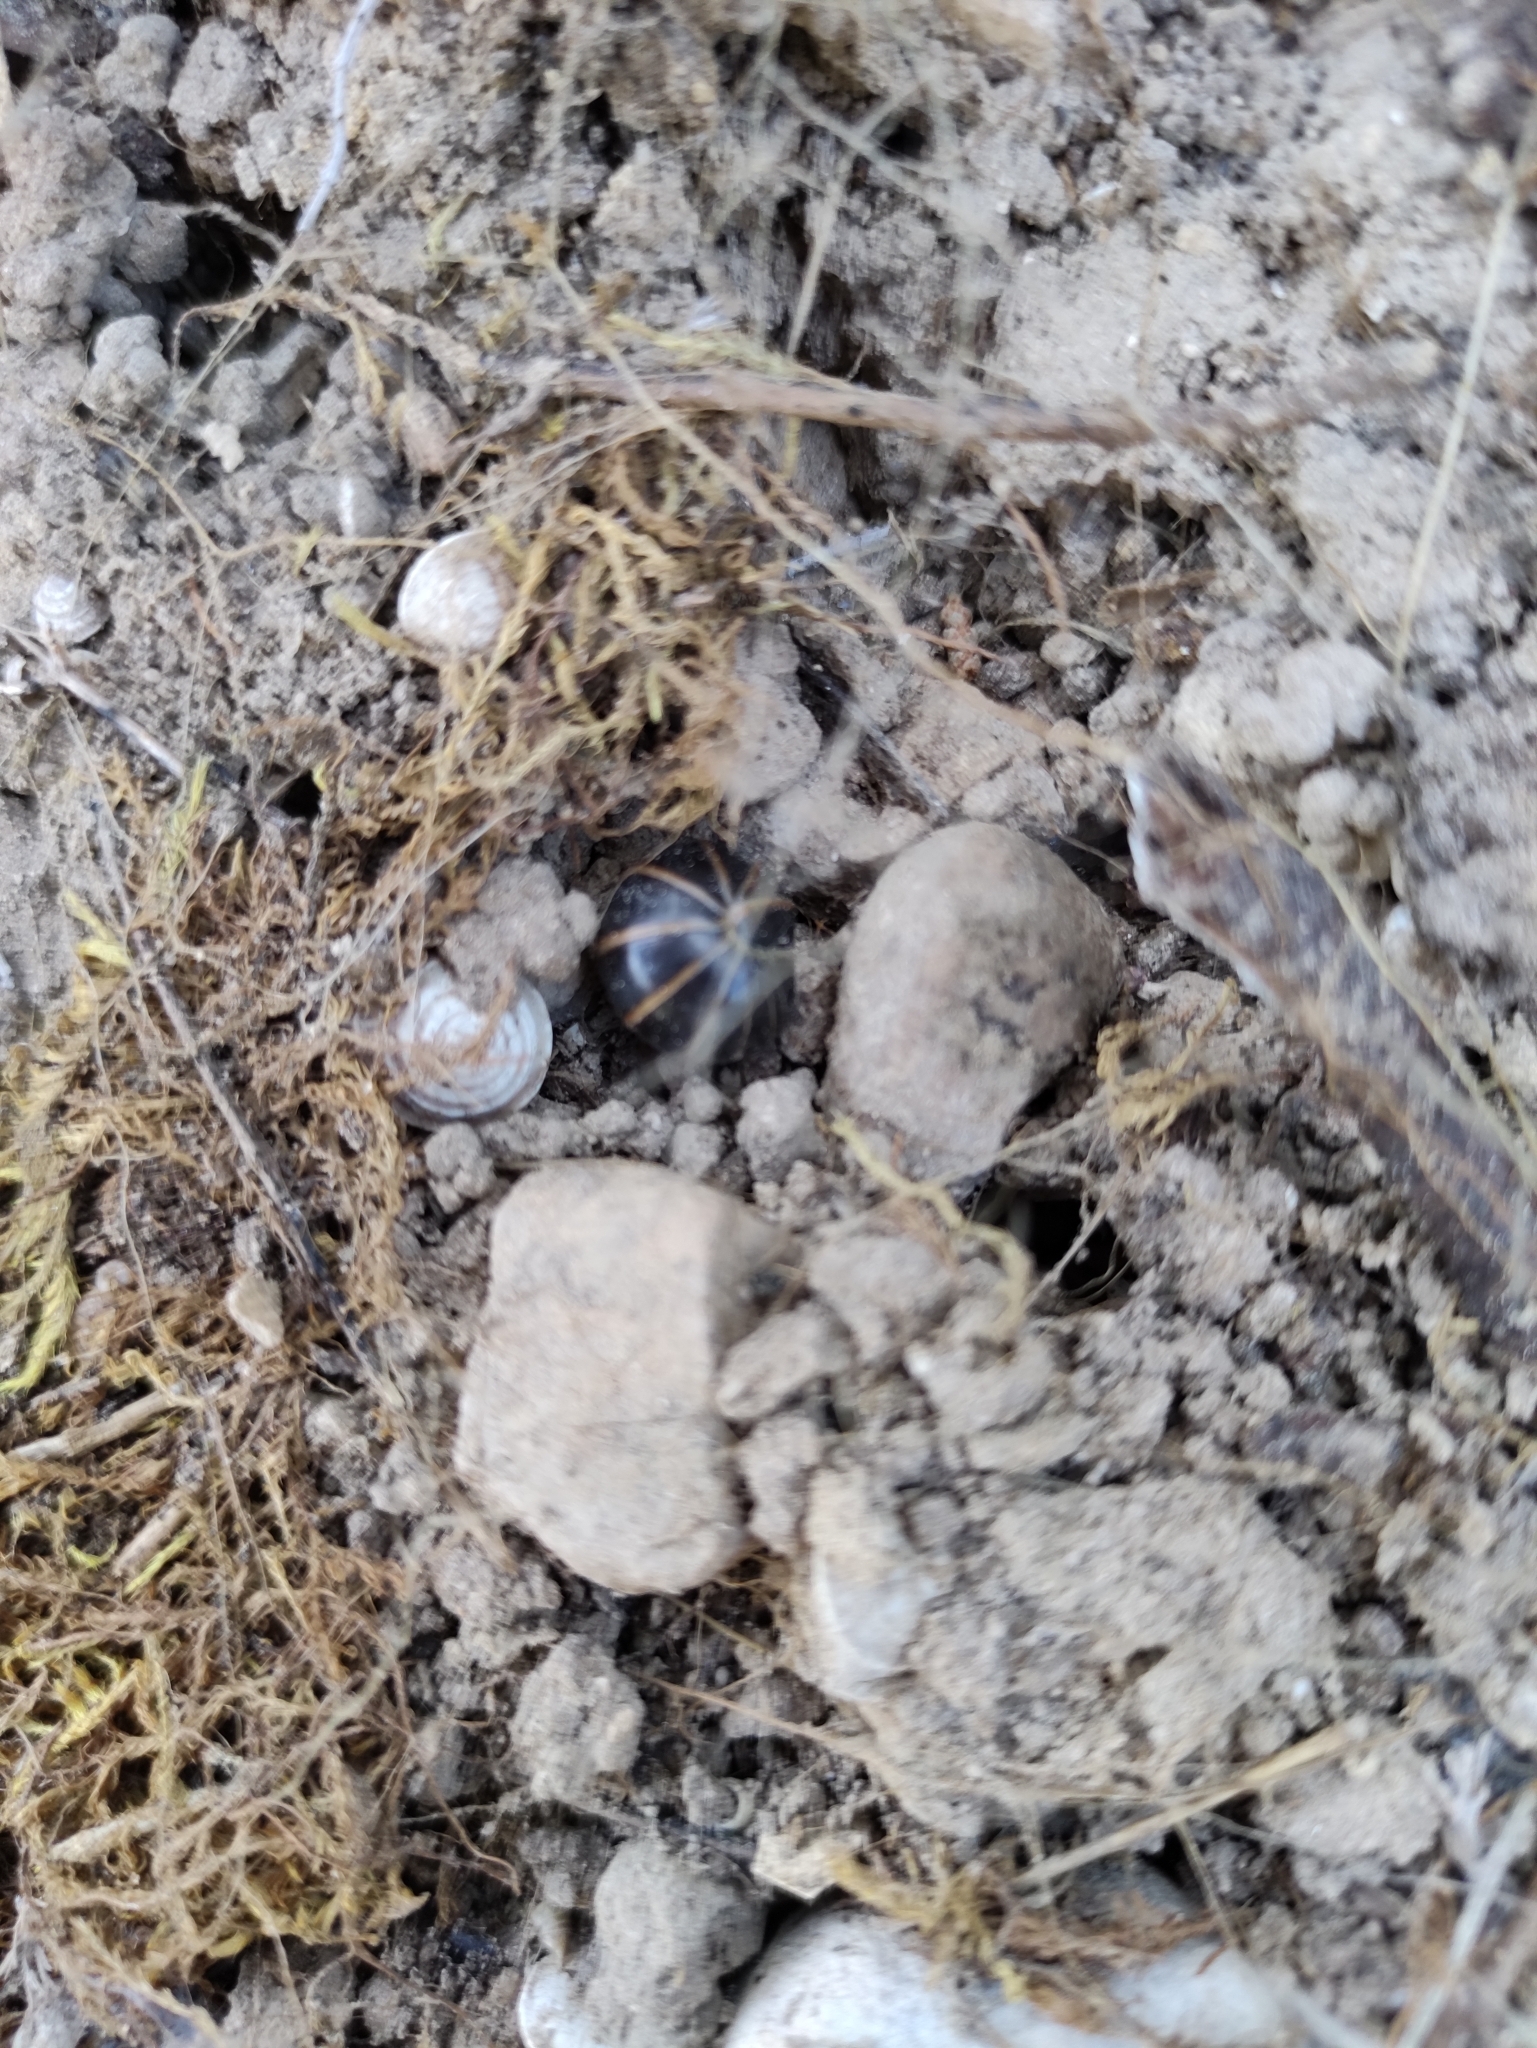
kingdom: Animalia
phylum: Arthropoda
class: Diplopoda
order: Glomerida
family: Glomeridae
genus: Glomeris
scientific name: Glomeris marginata
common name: Bordered pill millipede
